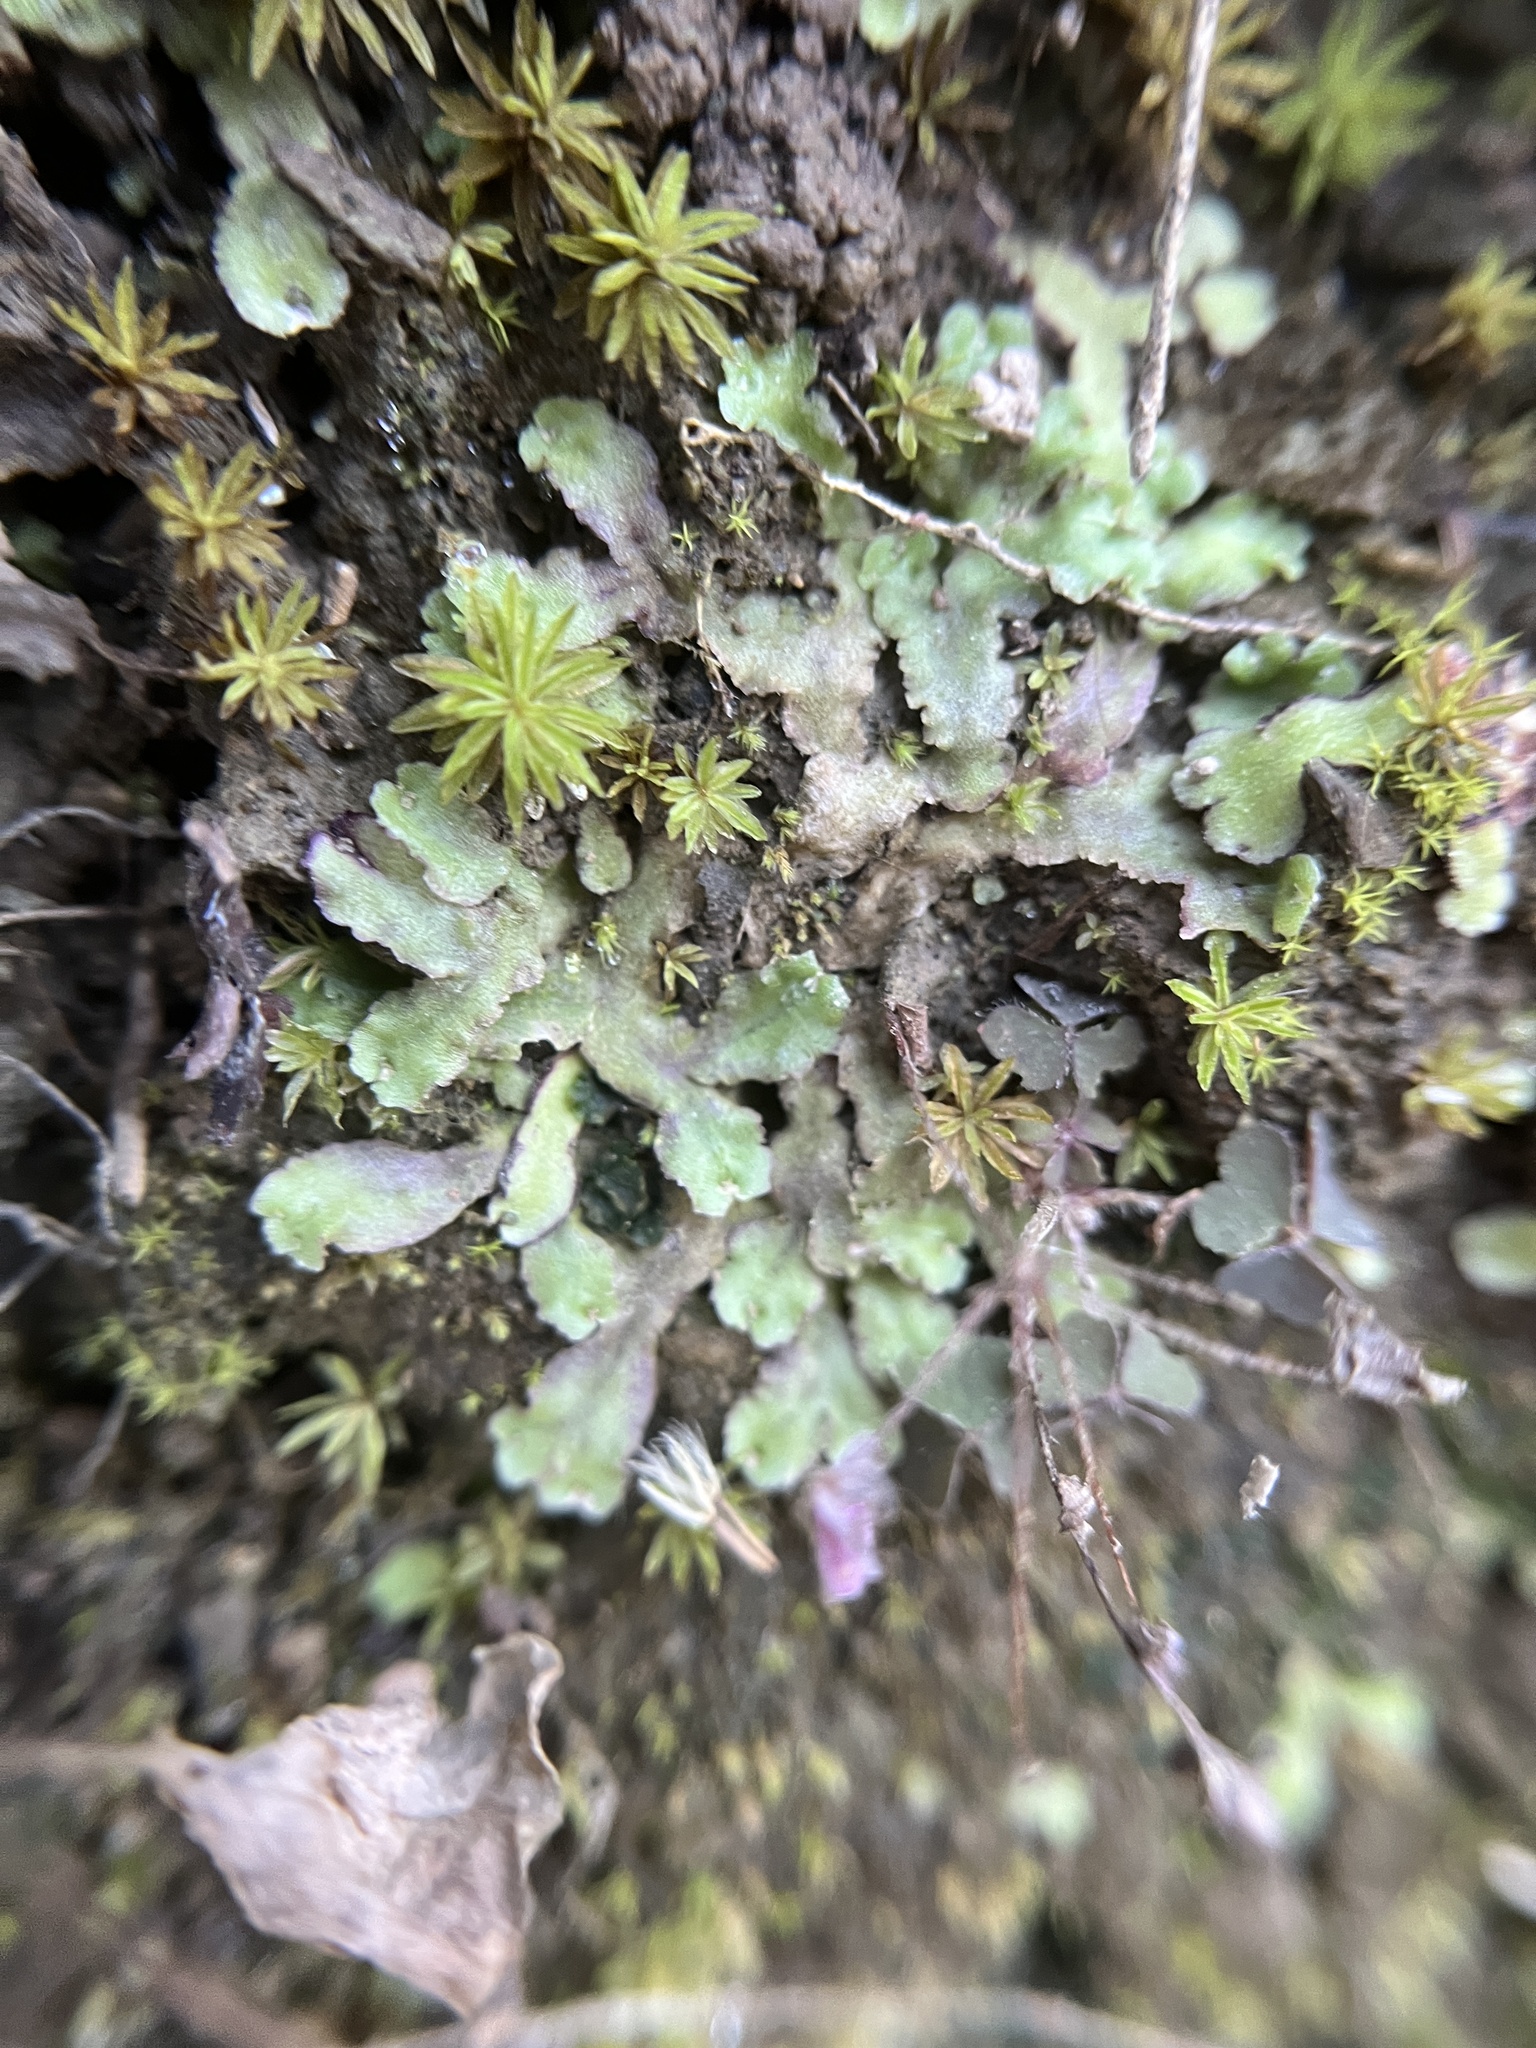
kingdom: Plantae
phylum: Marchantiophyta
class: Marchantiopsida
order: Marchantiales
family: Aytoniaceae
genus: Asterella
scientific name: Asterella tenella
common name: Delicate starwort
